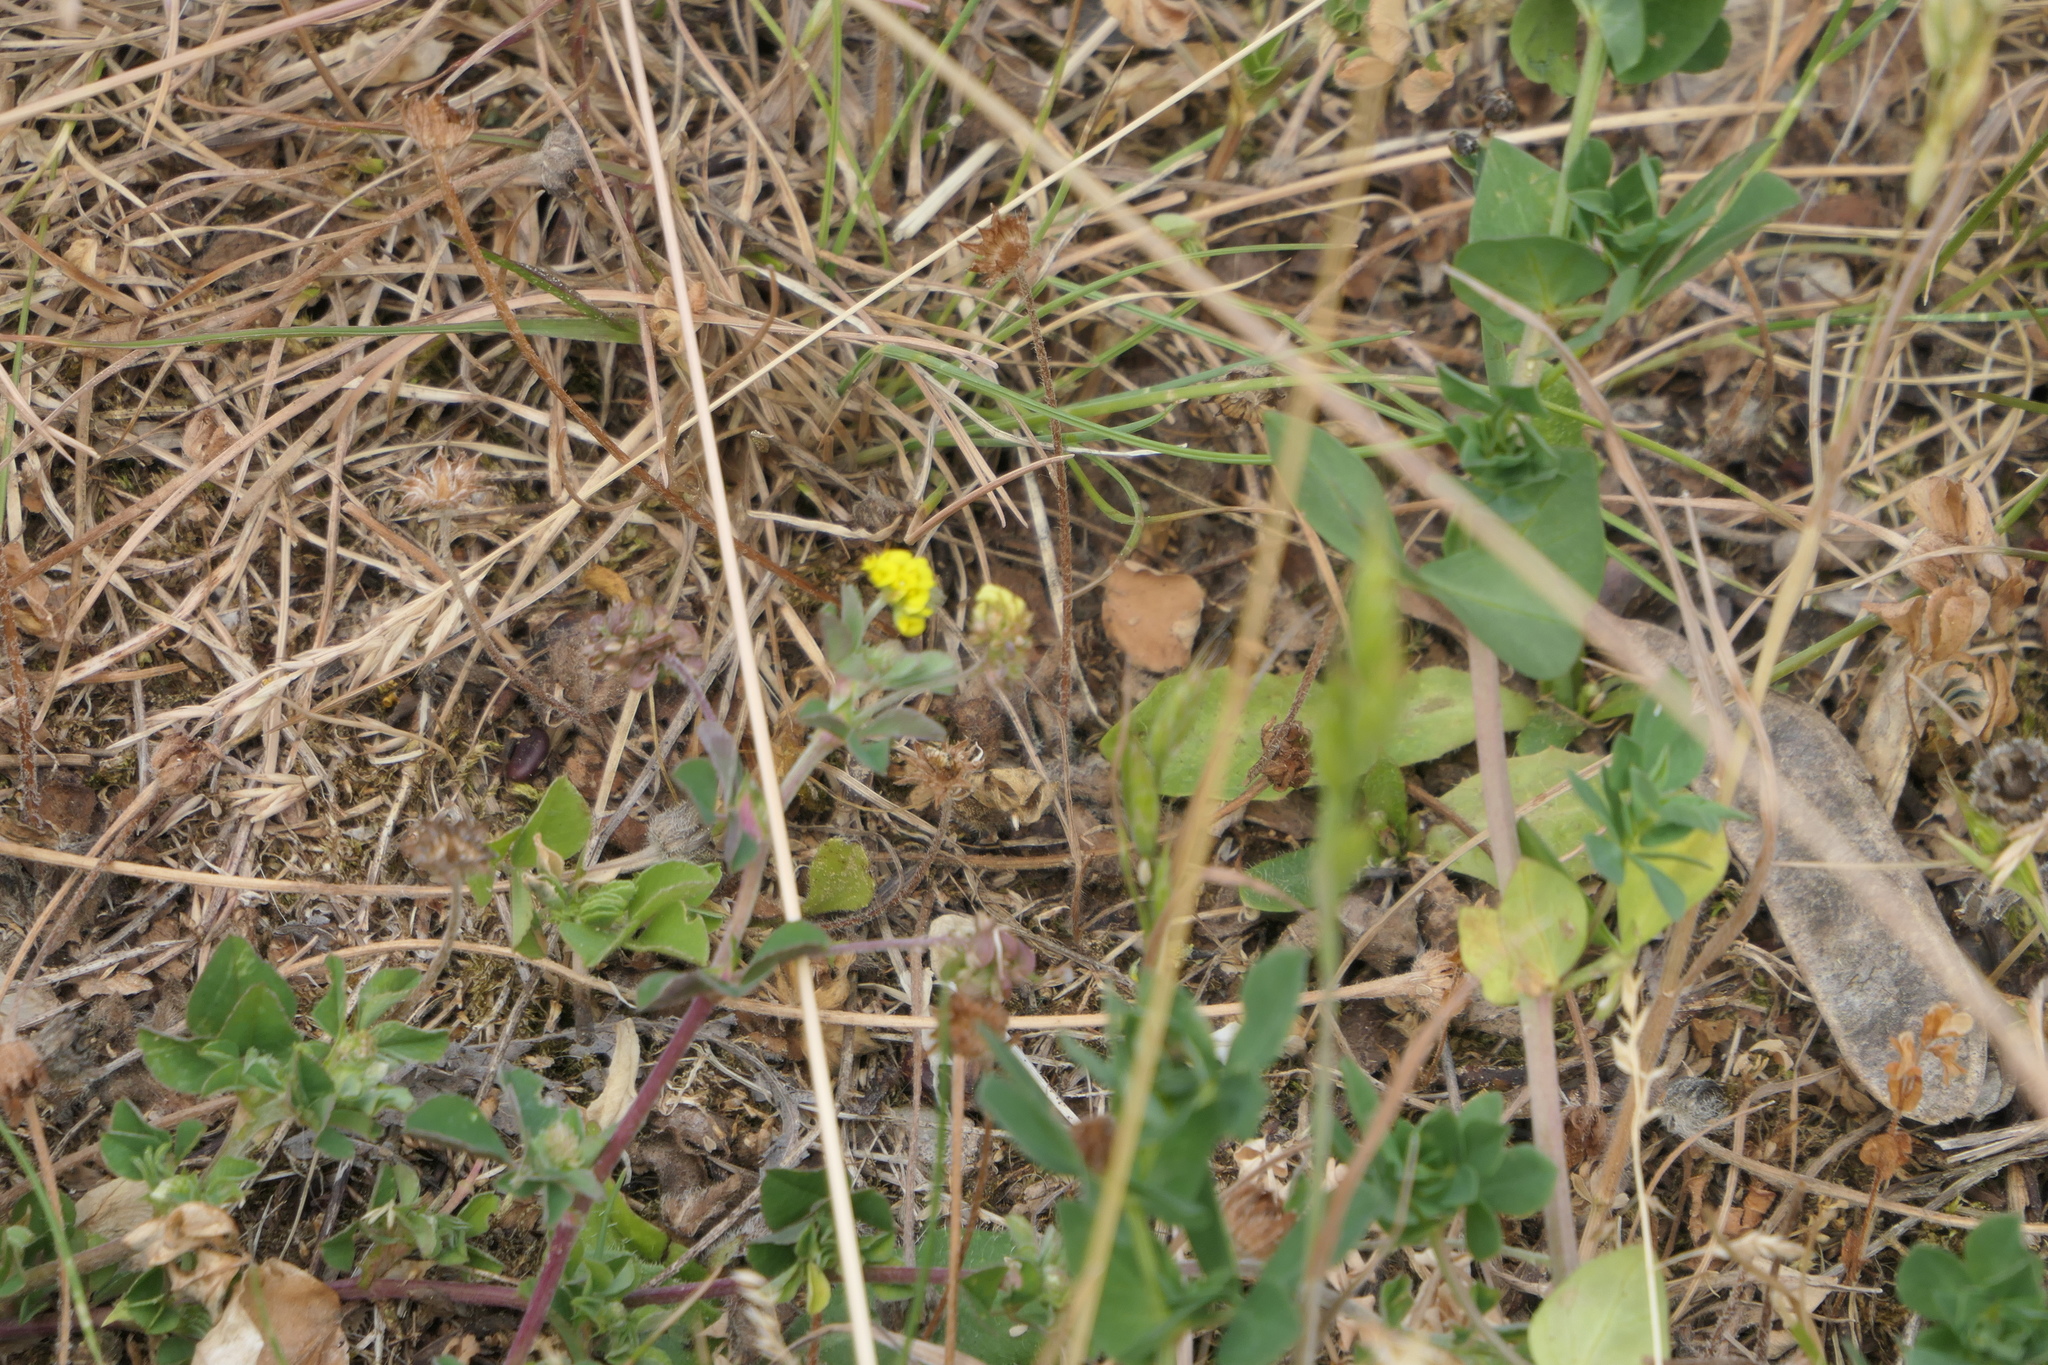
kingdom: Plantae
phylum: Tracheophyta
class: Magnoliopsida
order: Fabales
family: Fabaceae
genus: Medicago
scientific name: Medicago lupulina
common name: Black medick
